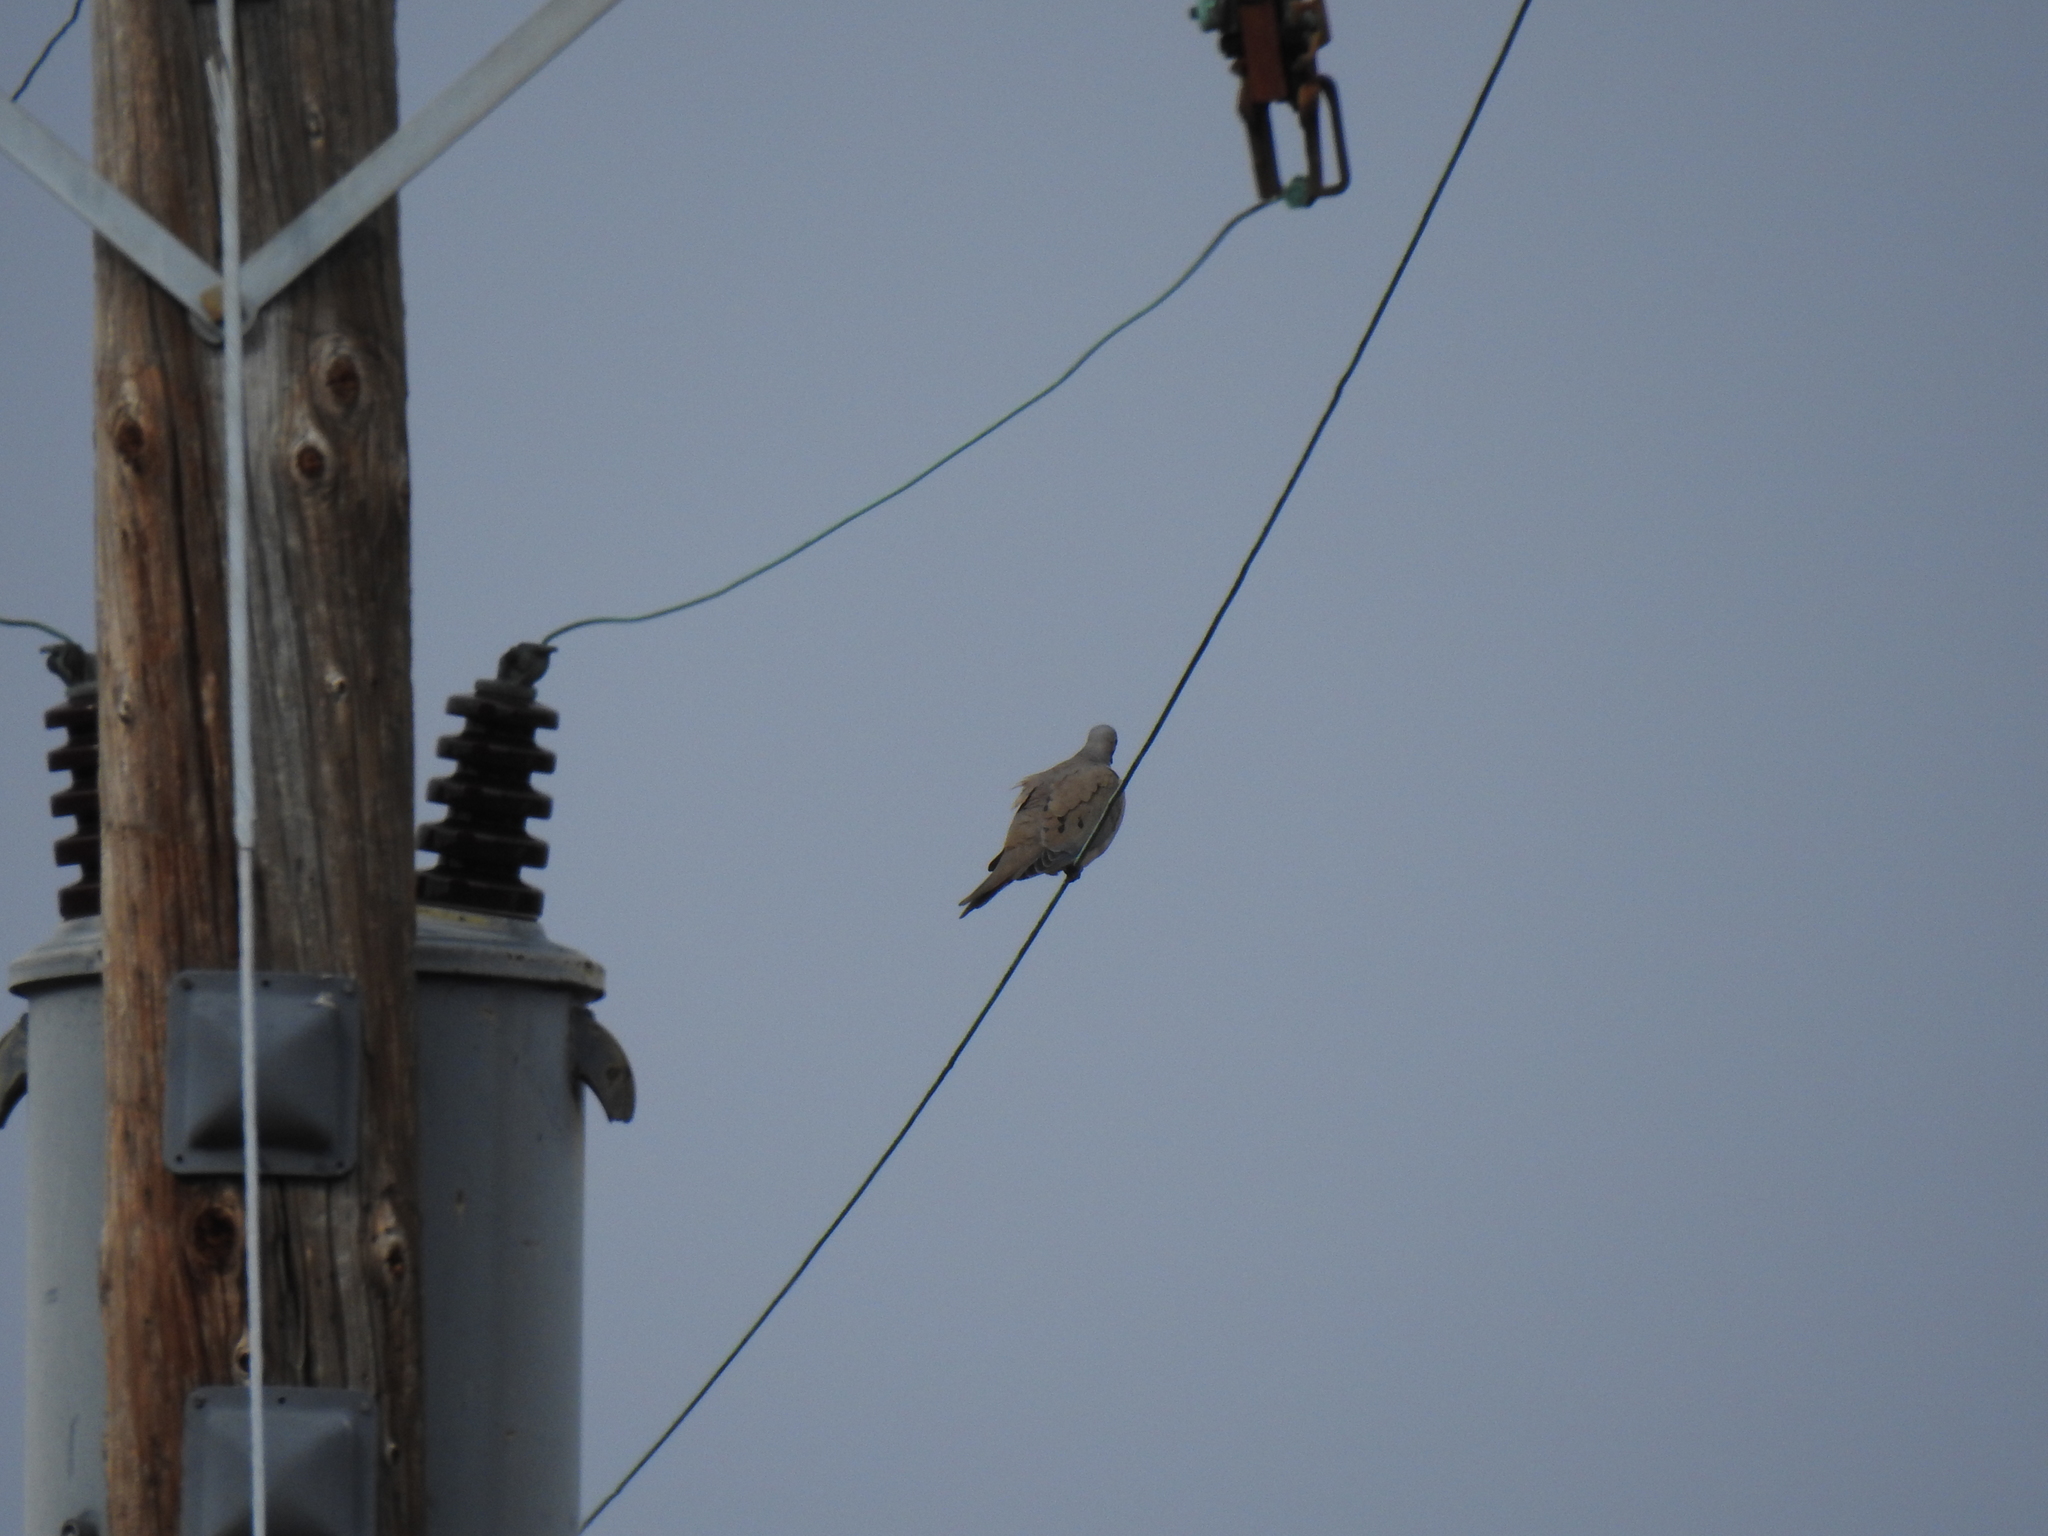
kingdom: Animalia
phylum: Chordata
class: Aves
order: Columbiformes
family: Columbidae
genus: Zenaida
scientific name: Zenaida macroura
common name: Mourning dove
